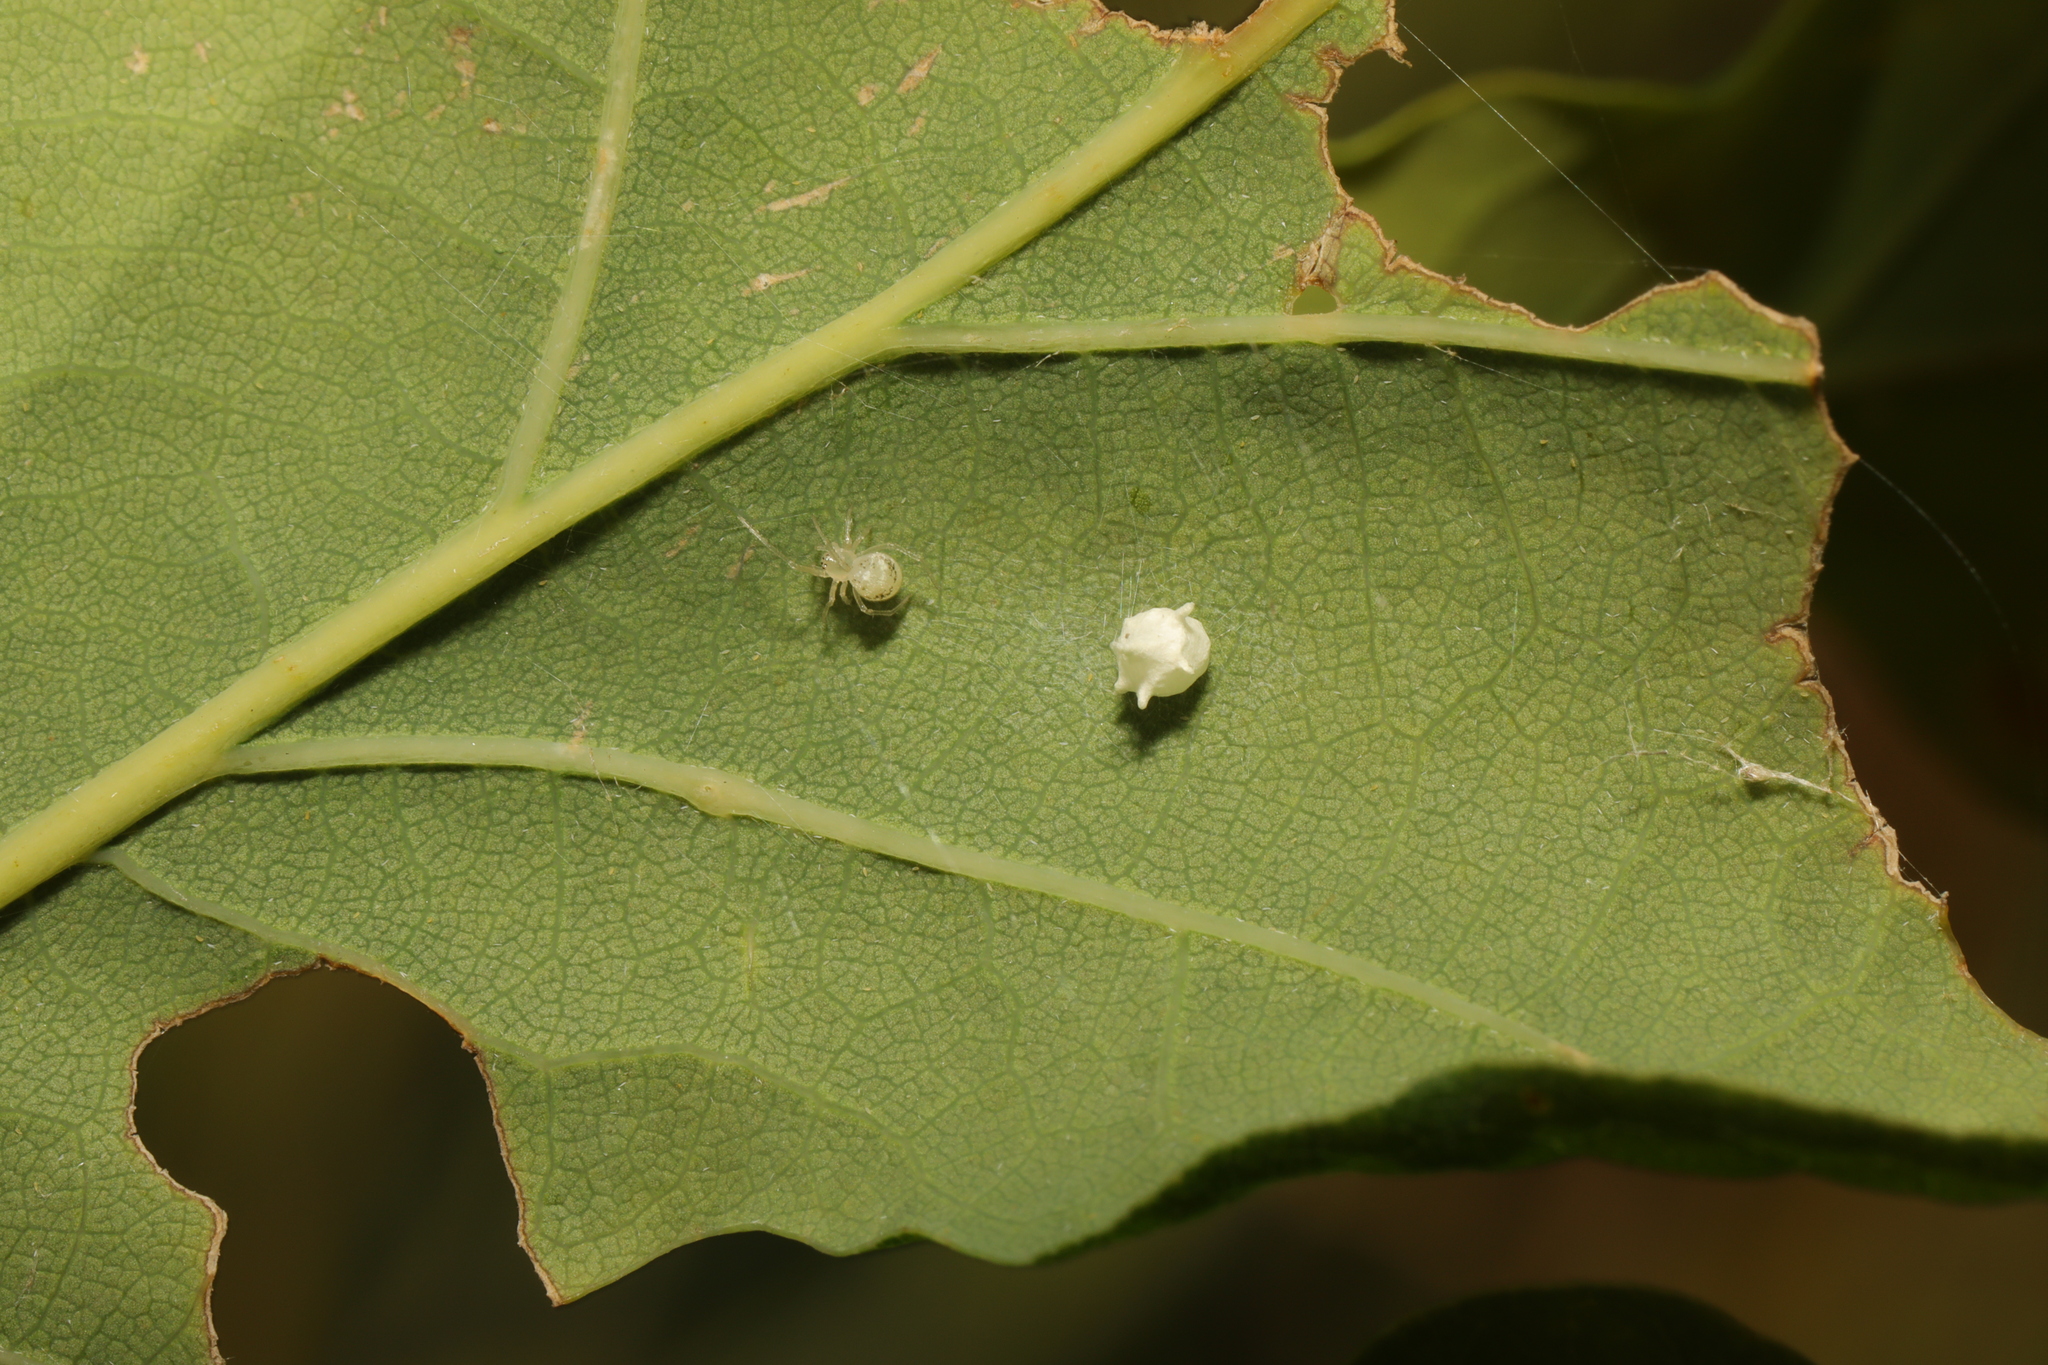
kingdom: Animalia
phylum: Arthropoda
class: Arachnida
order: Araneae
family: Theridiidae
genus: Paidiscura
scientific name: Paidiscura pallens
